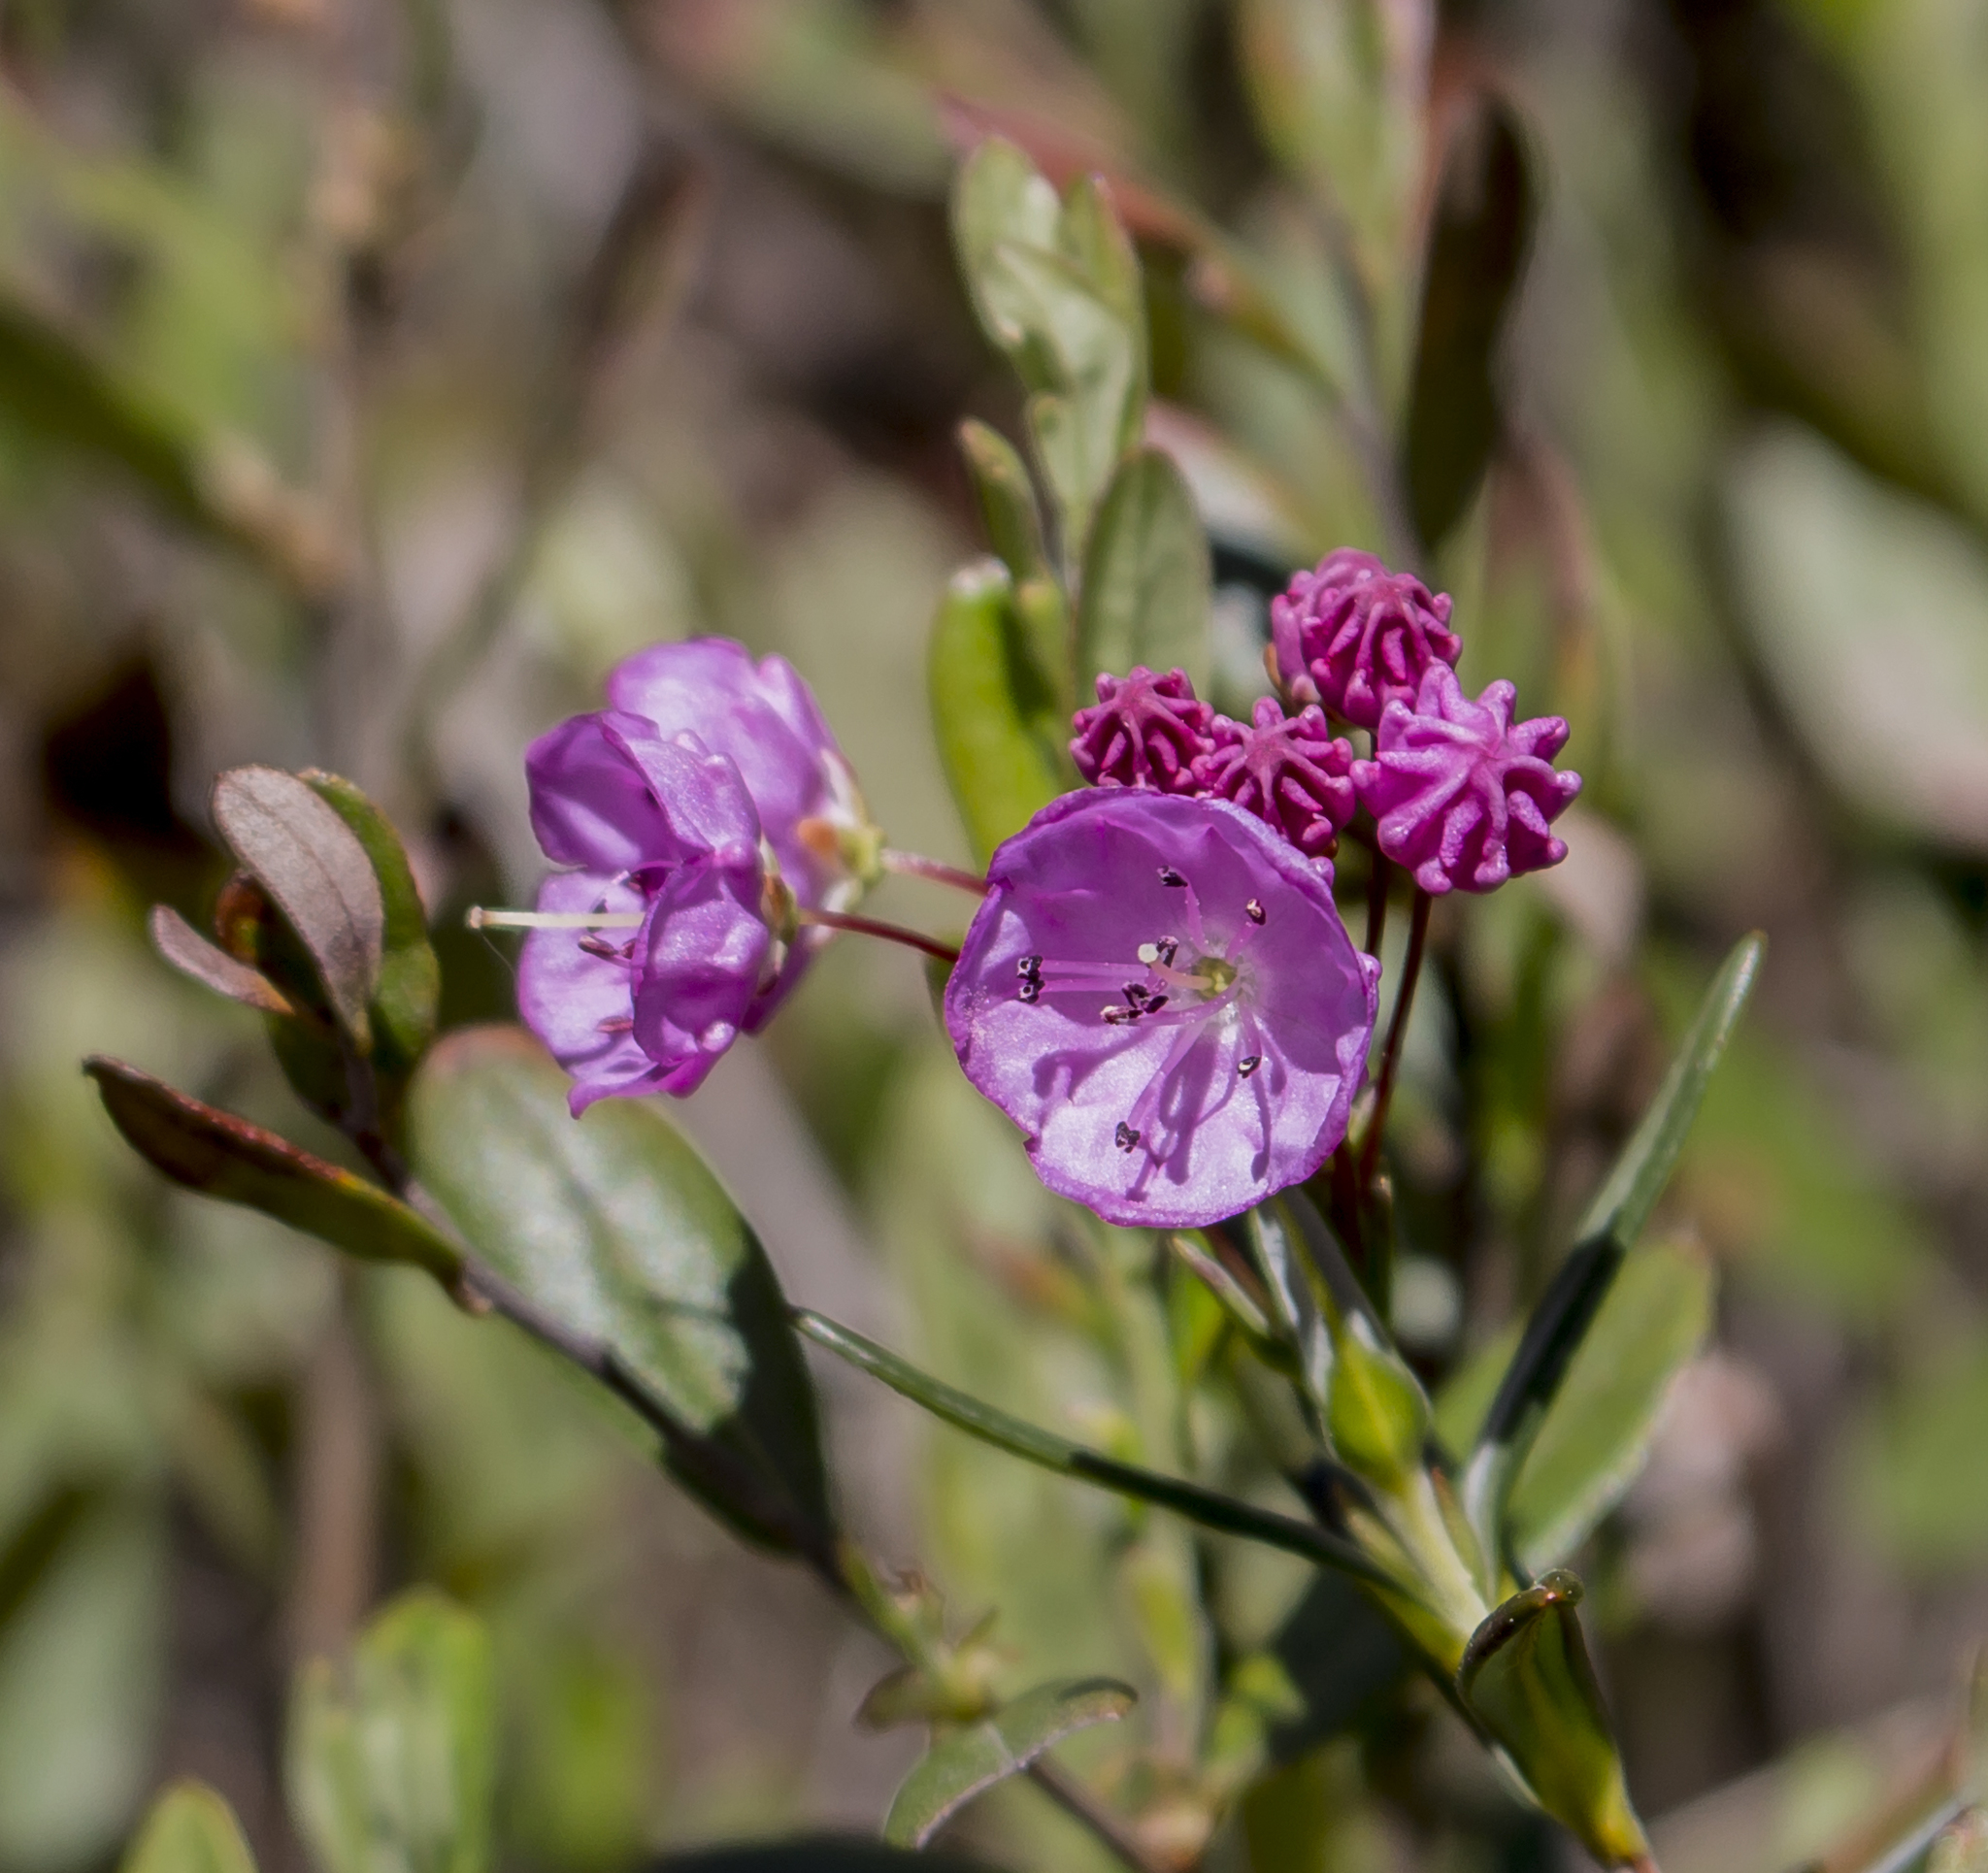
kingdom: Plantae
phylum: Tracheophyta
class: Magnoliopsida
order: Ericales
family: Ericaceae
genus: Kalmia
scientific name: Kalmia polifolia
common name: Bog-laurel
